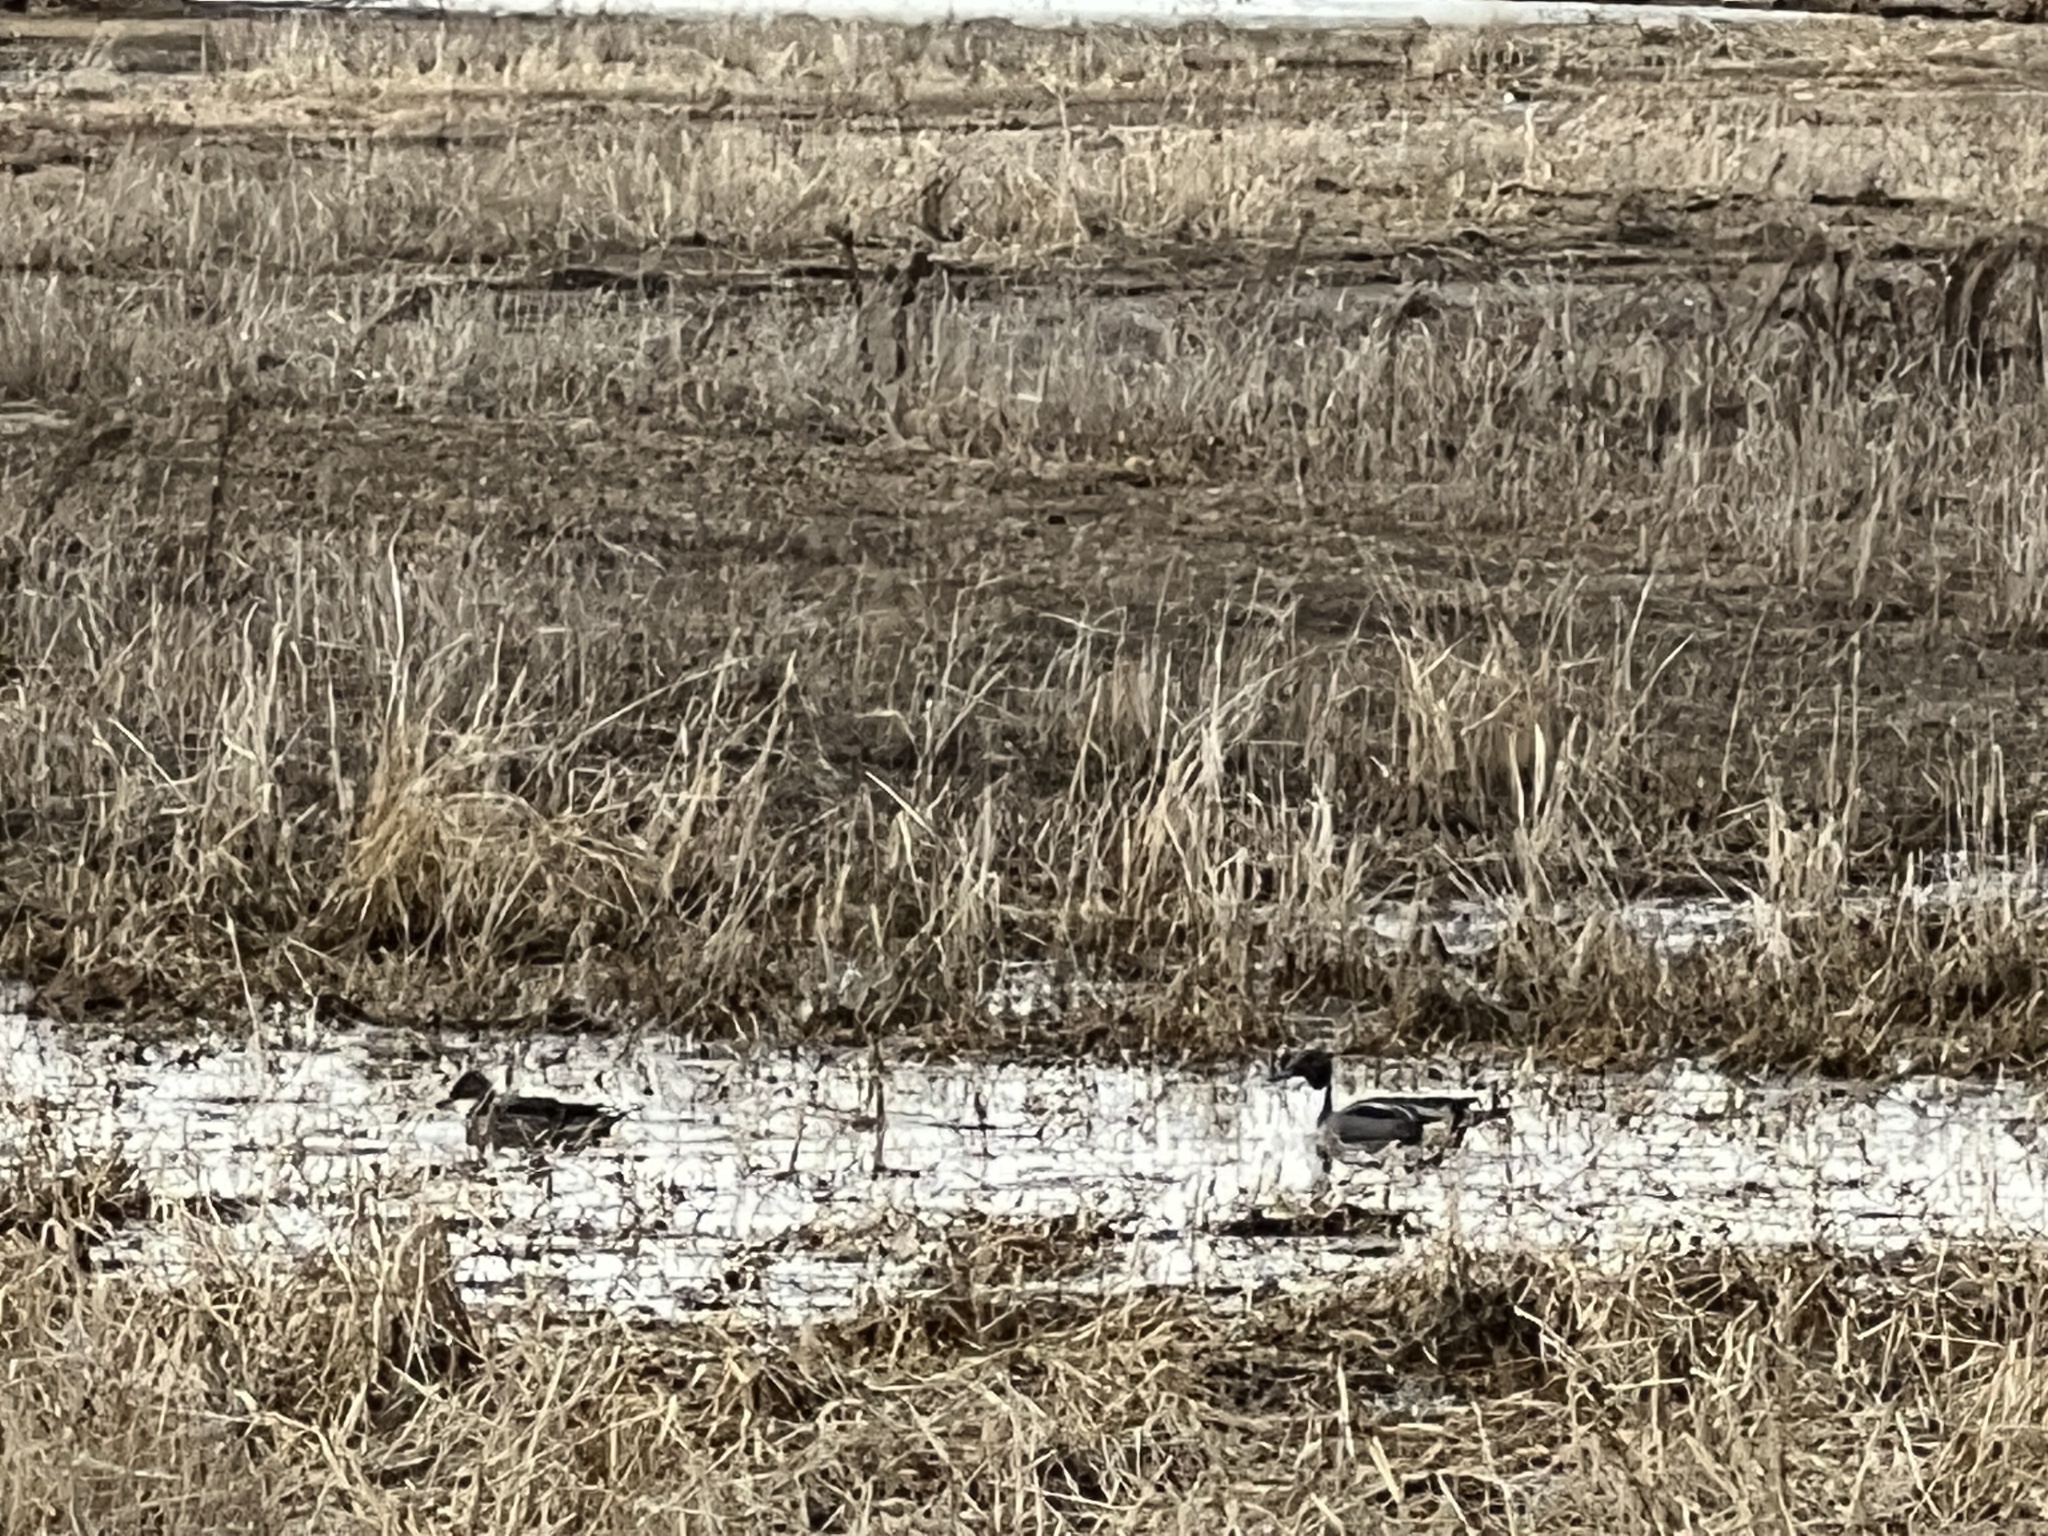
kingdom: Animalia
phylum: Chordata
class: Aves
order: Anseriformes
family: Anatidae
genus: Anas
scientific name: Anas acuta
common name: Northern pintail
